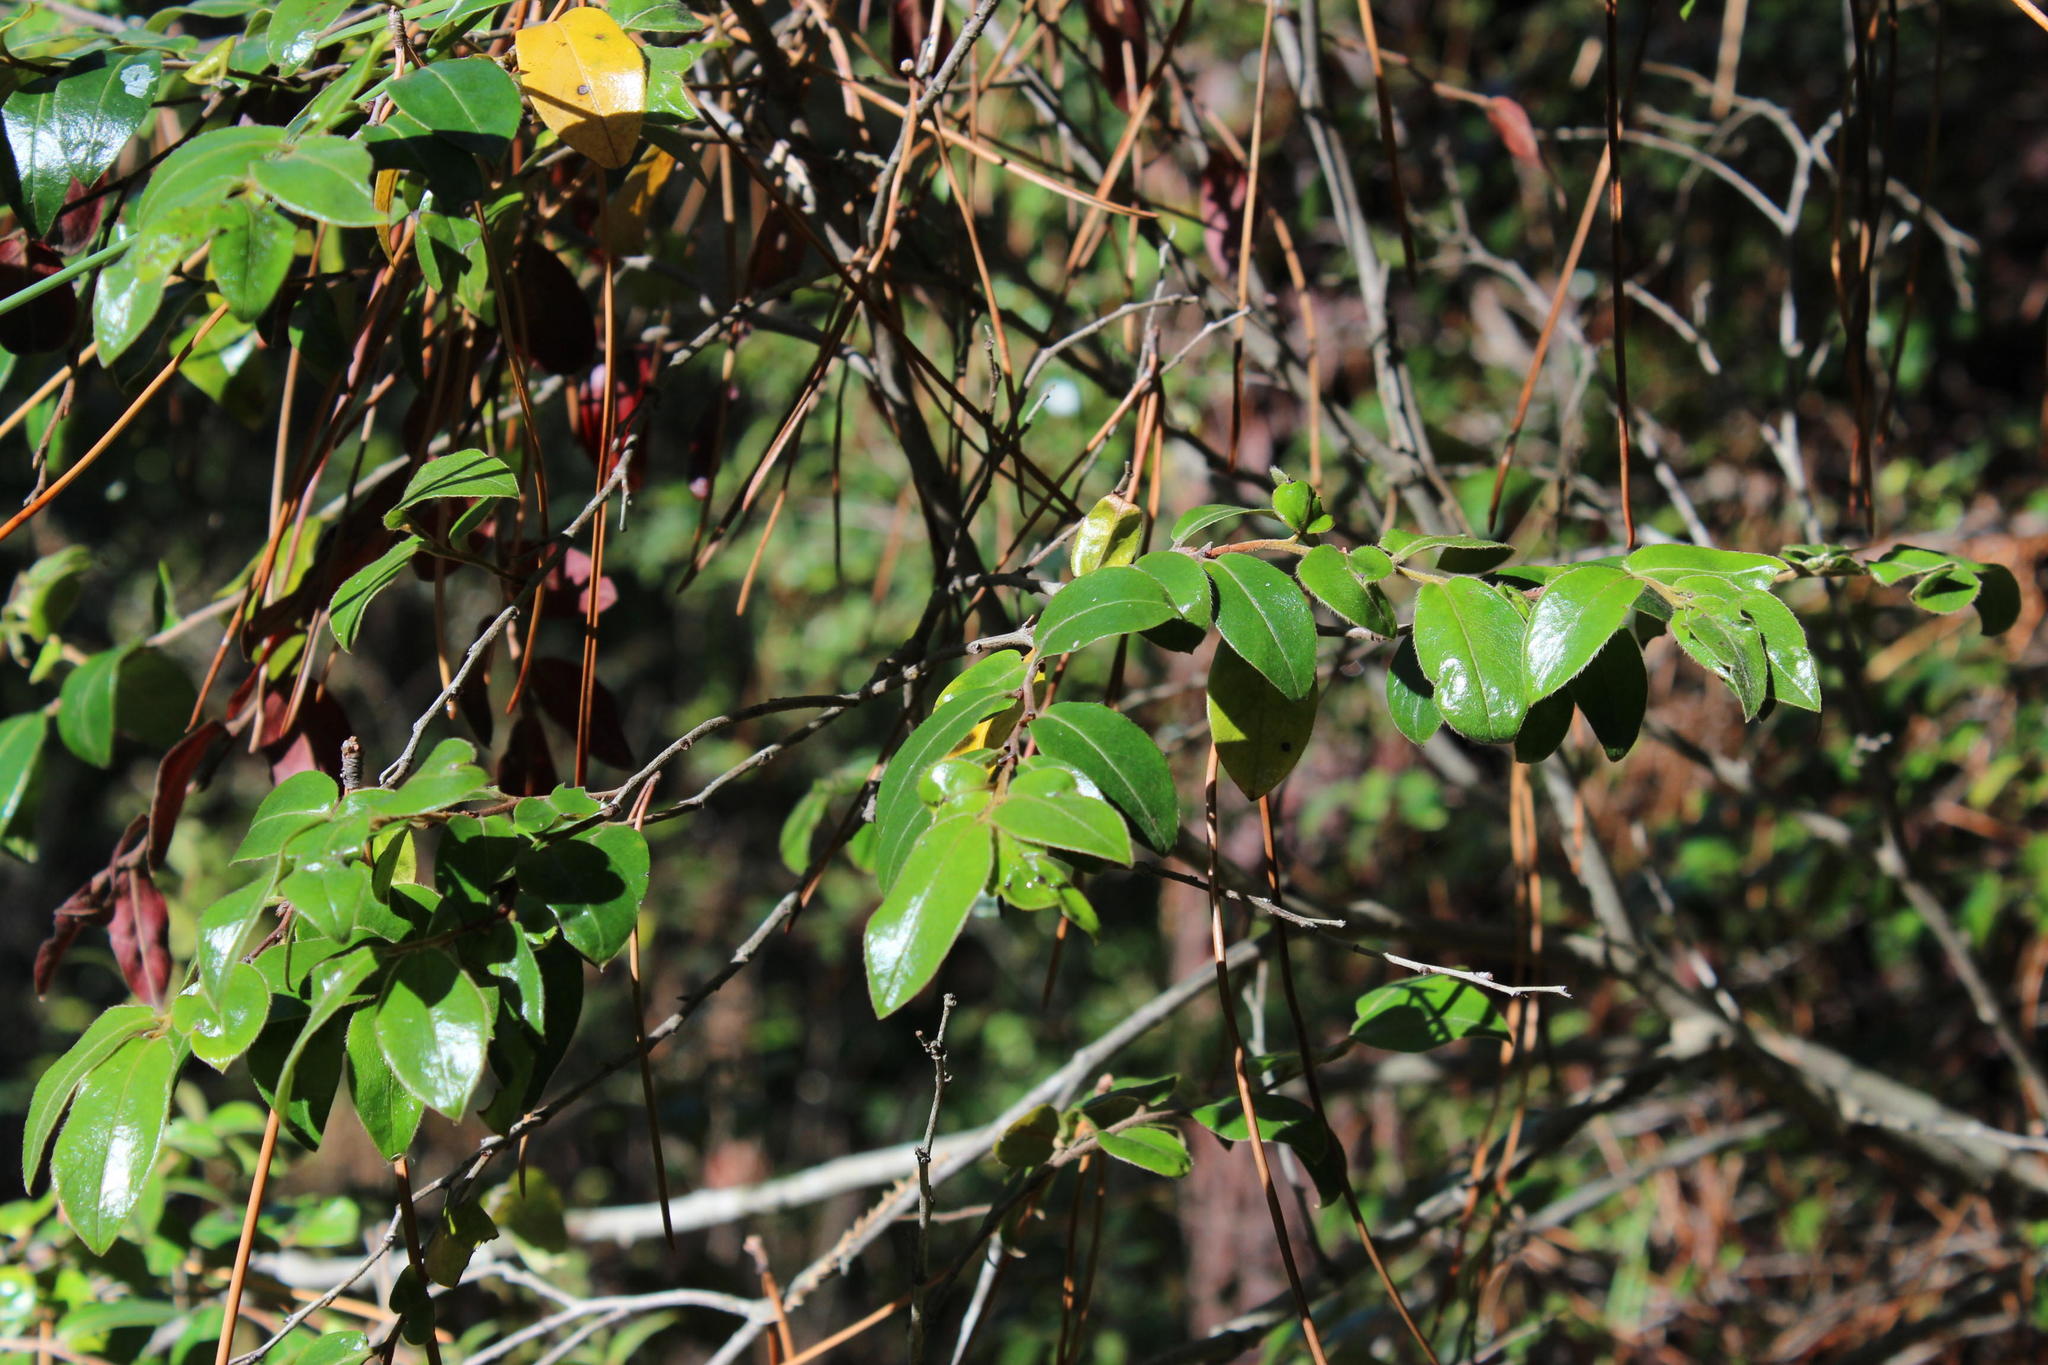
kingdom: Plantae
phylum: Tracheophyta
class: Magnoliopsida
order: Ericales
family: Ebenaceae
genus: Diospyros
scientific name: Diospyros whyteana
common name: Bladder-nut
